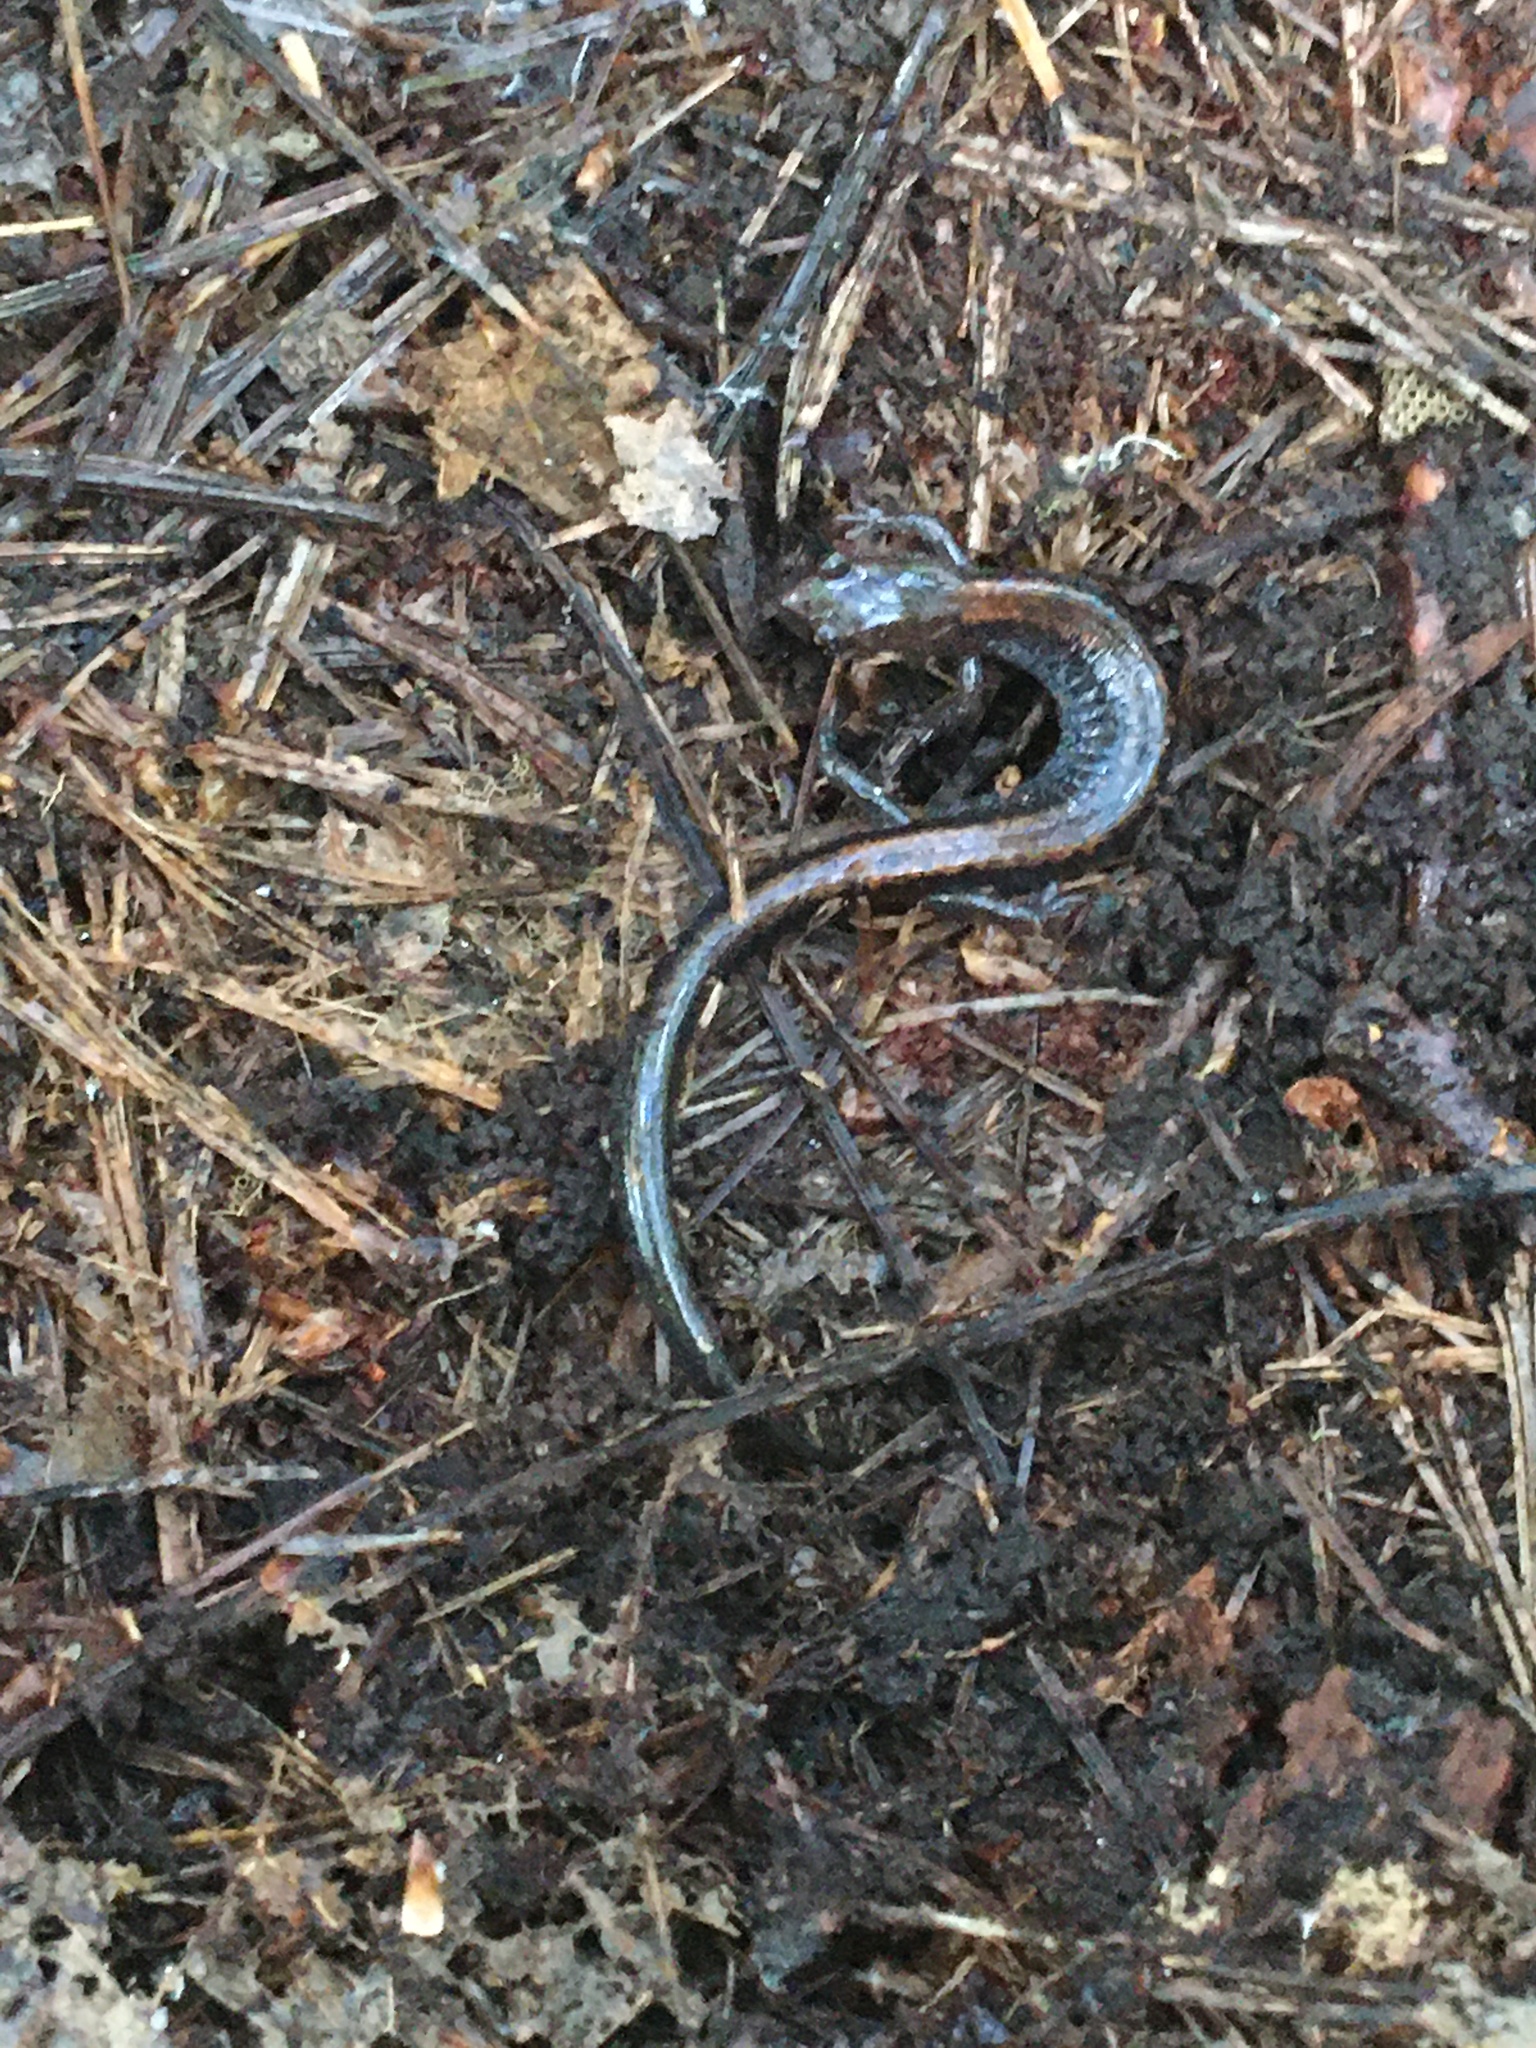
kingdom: Animalia
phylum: Chordata
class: Amphibia
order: Caudata
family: Plethodontidae
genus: Plethodon
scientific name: Plethodon cinereus
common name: Redback salamander
